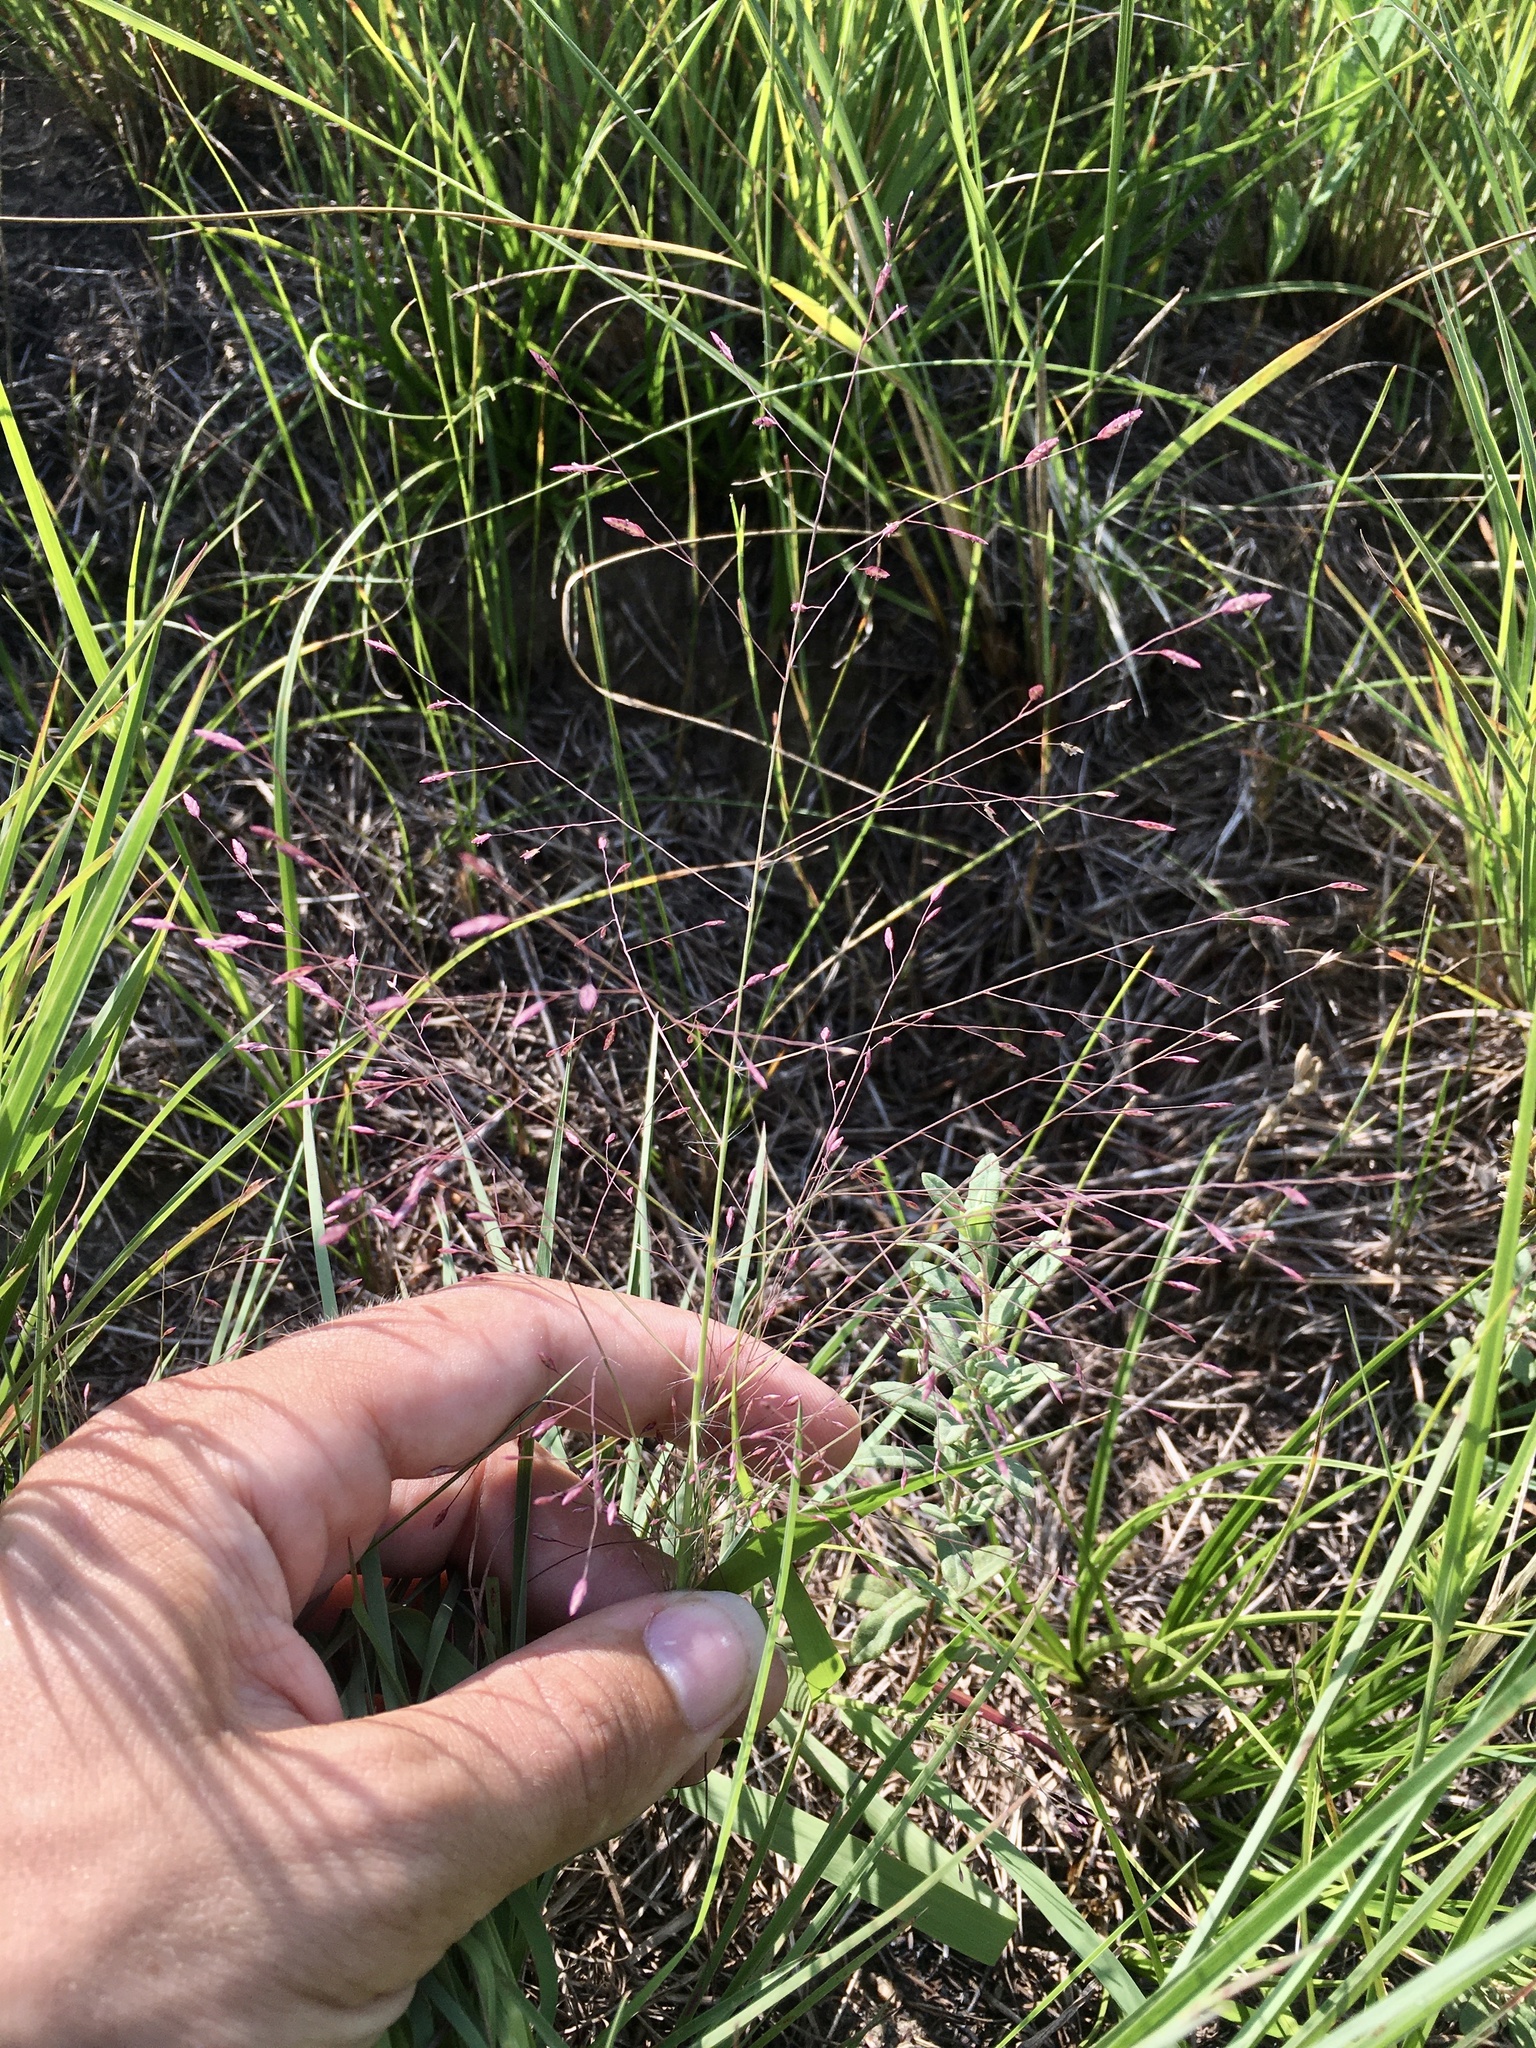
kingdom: Plantae
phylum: Tracheophyta
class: Liliopsida
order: Poales
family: Poaceae
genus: Eragrostis
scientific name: Eragrostis spectabilis
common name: Petticoat-climber
